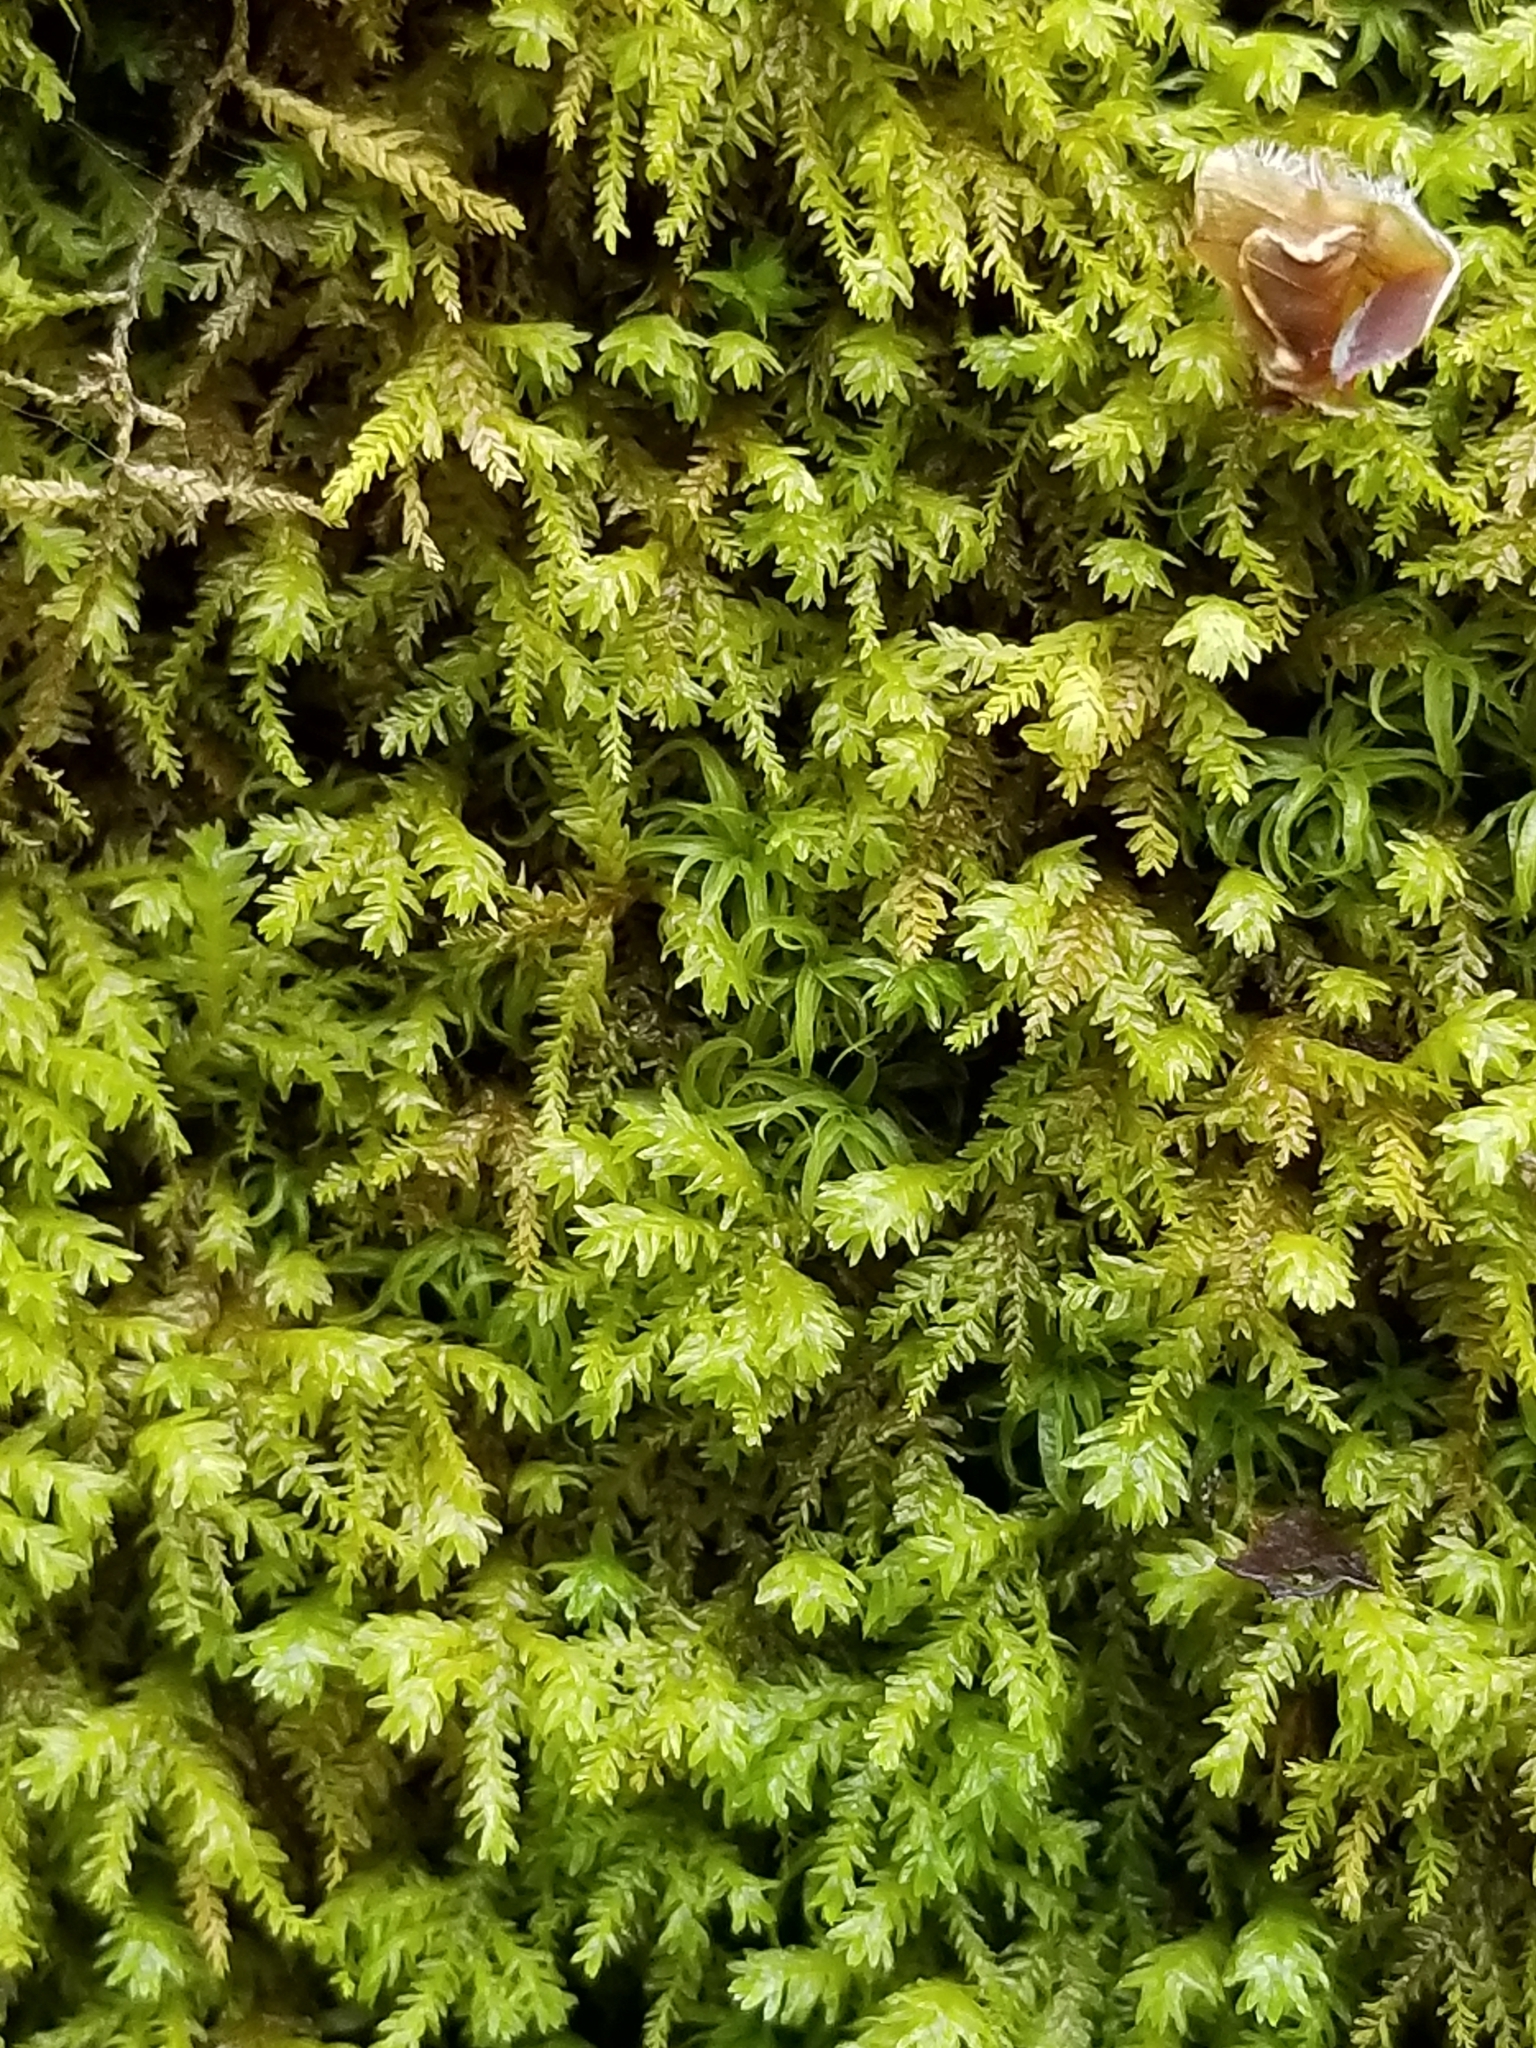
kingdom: Plantae
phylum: Bryophyta
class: Bryopsida
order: Hypnales
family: Neckeraceae
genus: Pseudanomodon
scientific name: Pseudanomodon attenuatus
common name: Tree-skirt moss
